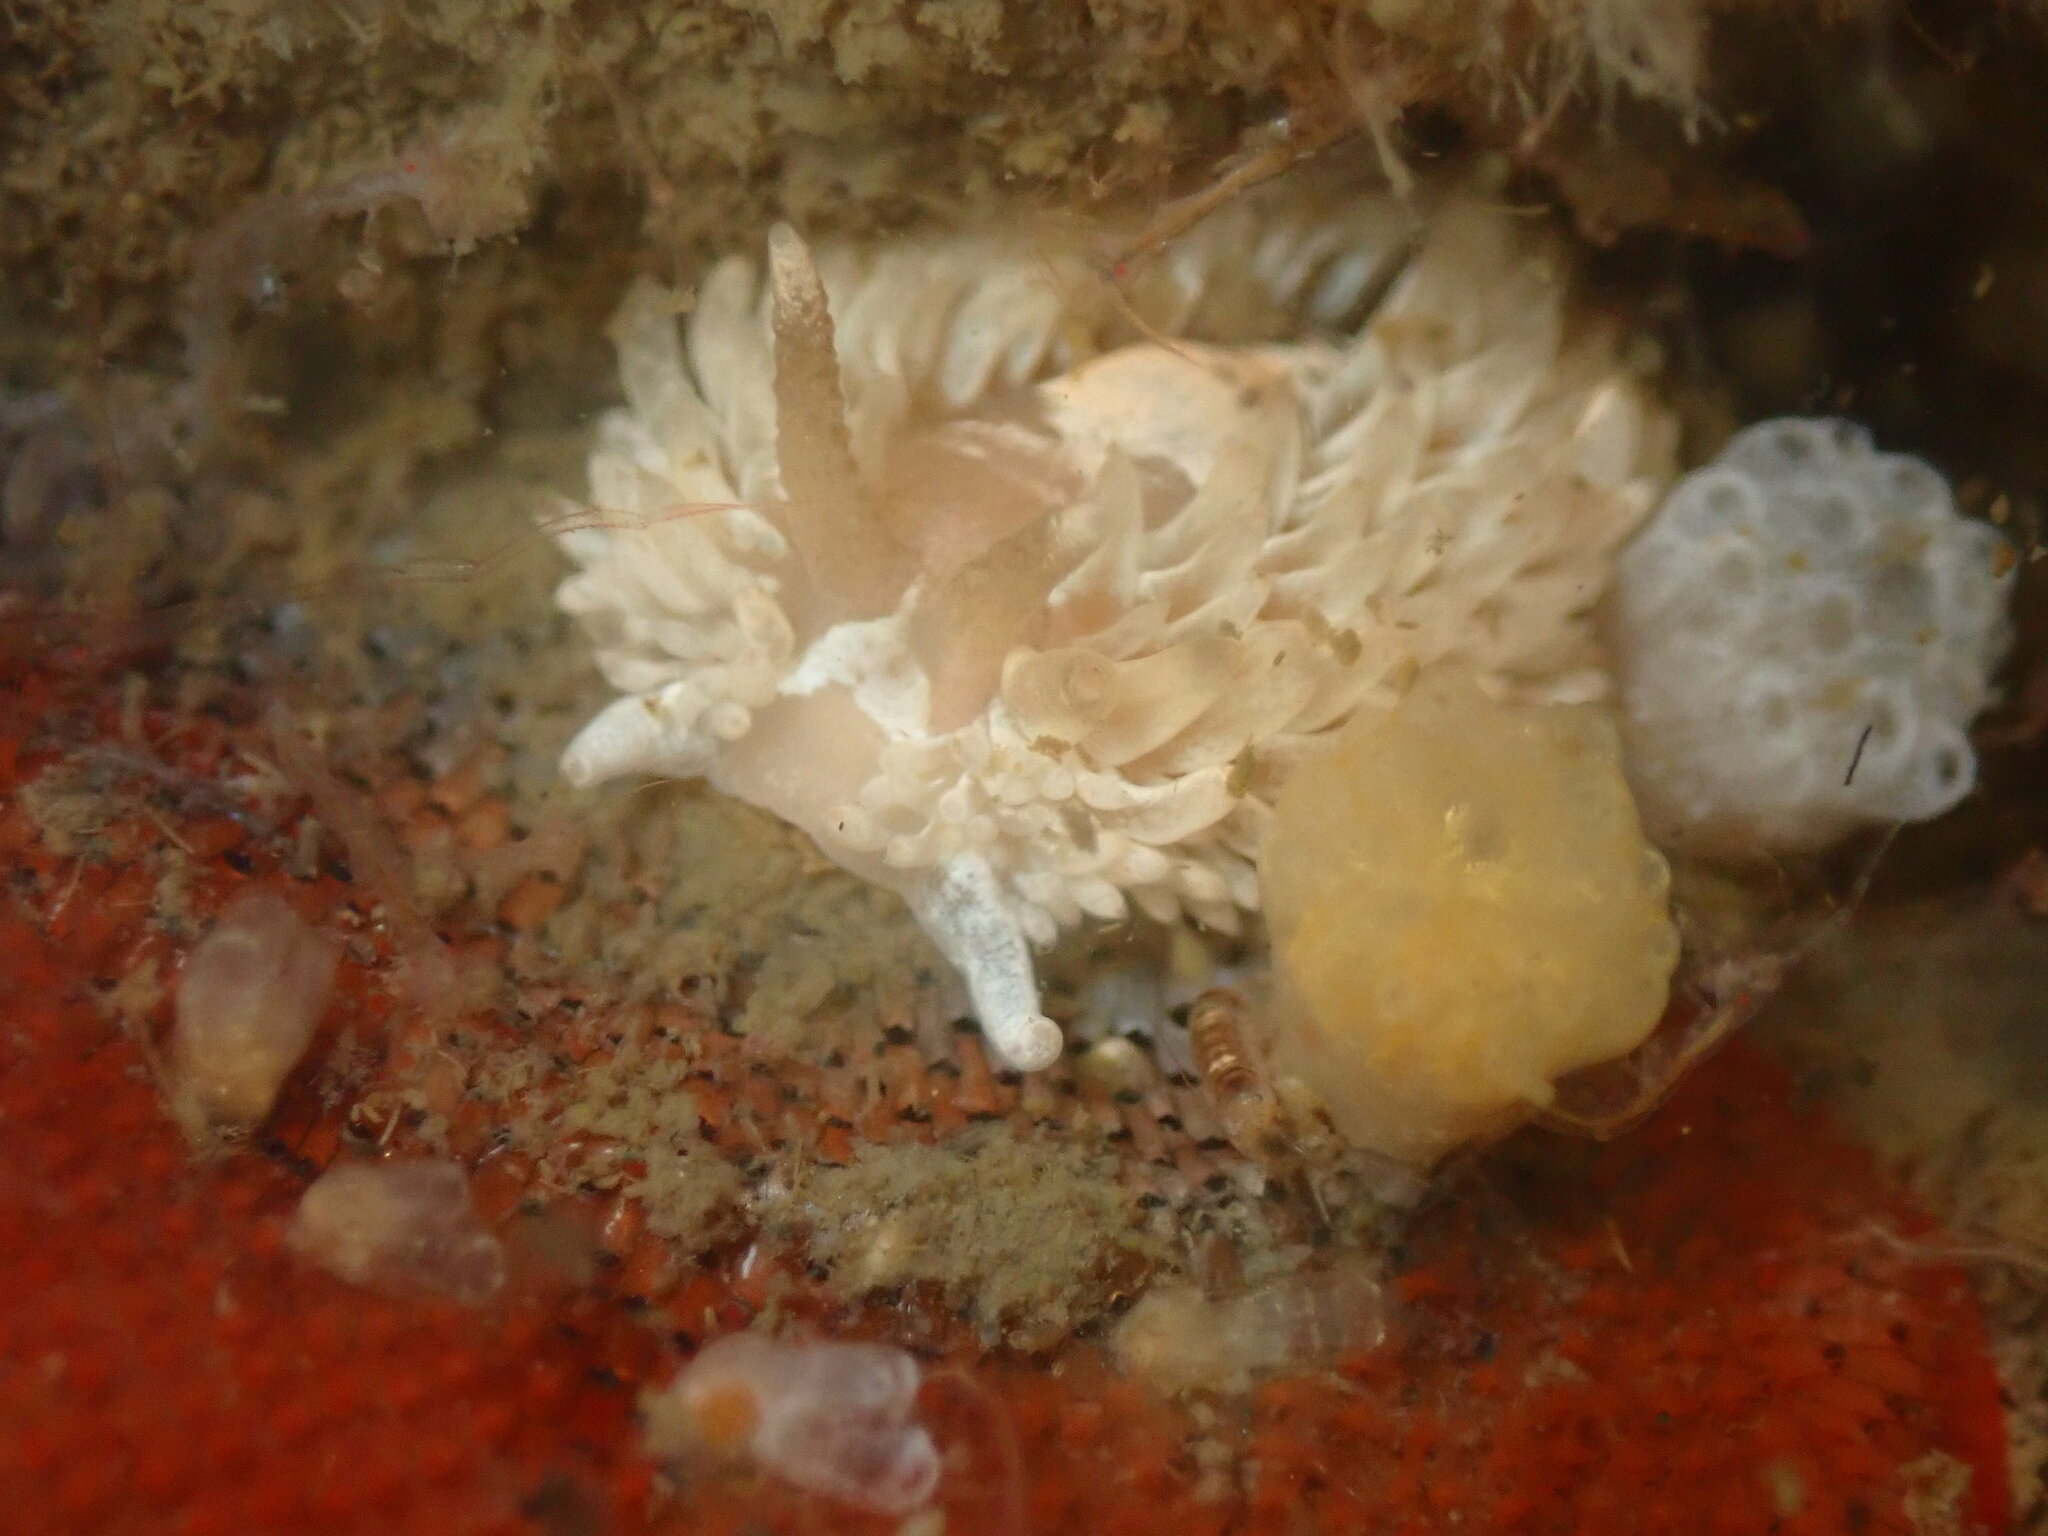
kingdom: Animalia
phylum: Mollusca
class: Gastropoda
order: Nudibranchia
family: Aeolidiidae
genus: Aeolidia
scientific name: Aeolidia loui
